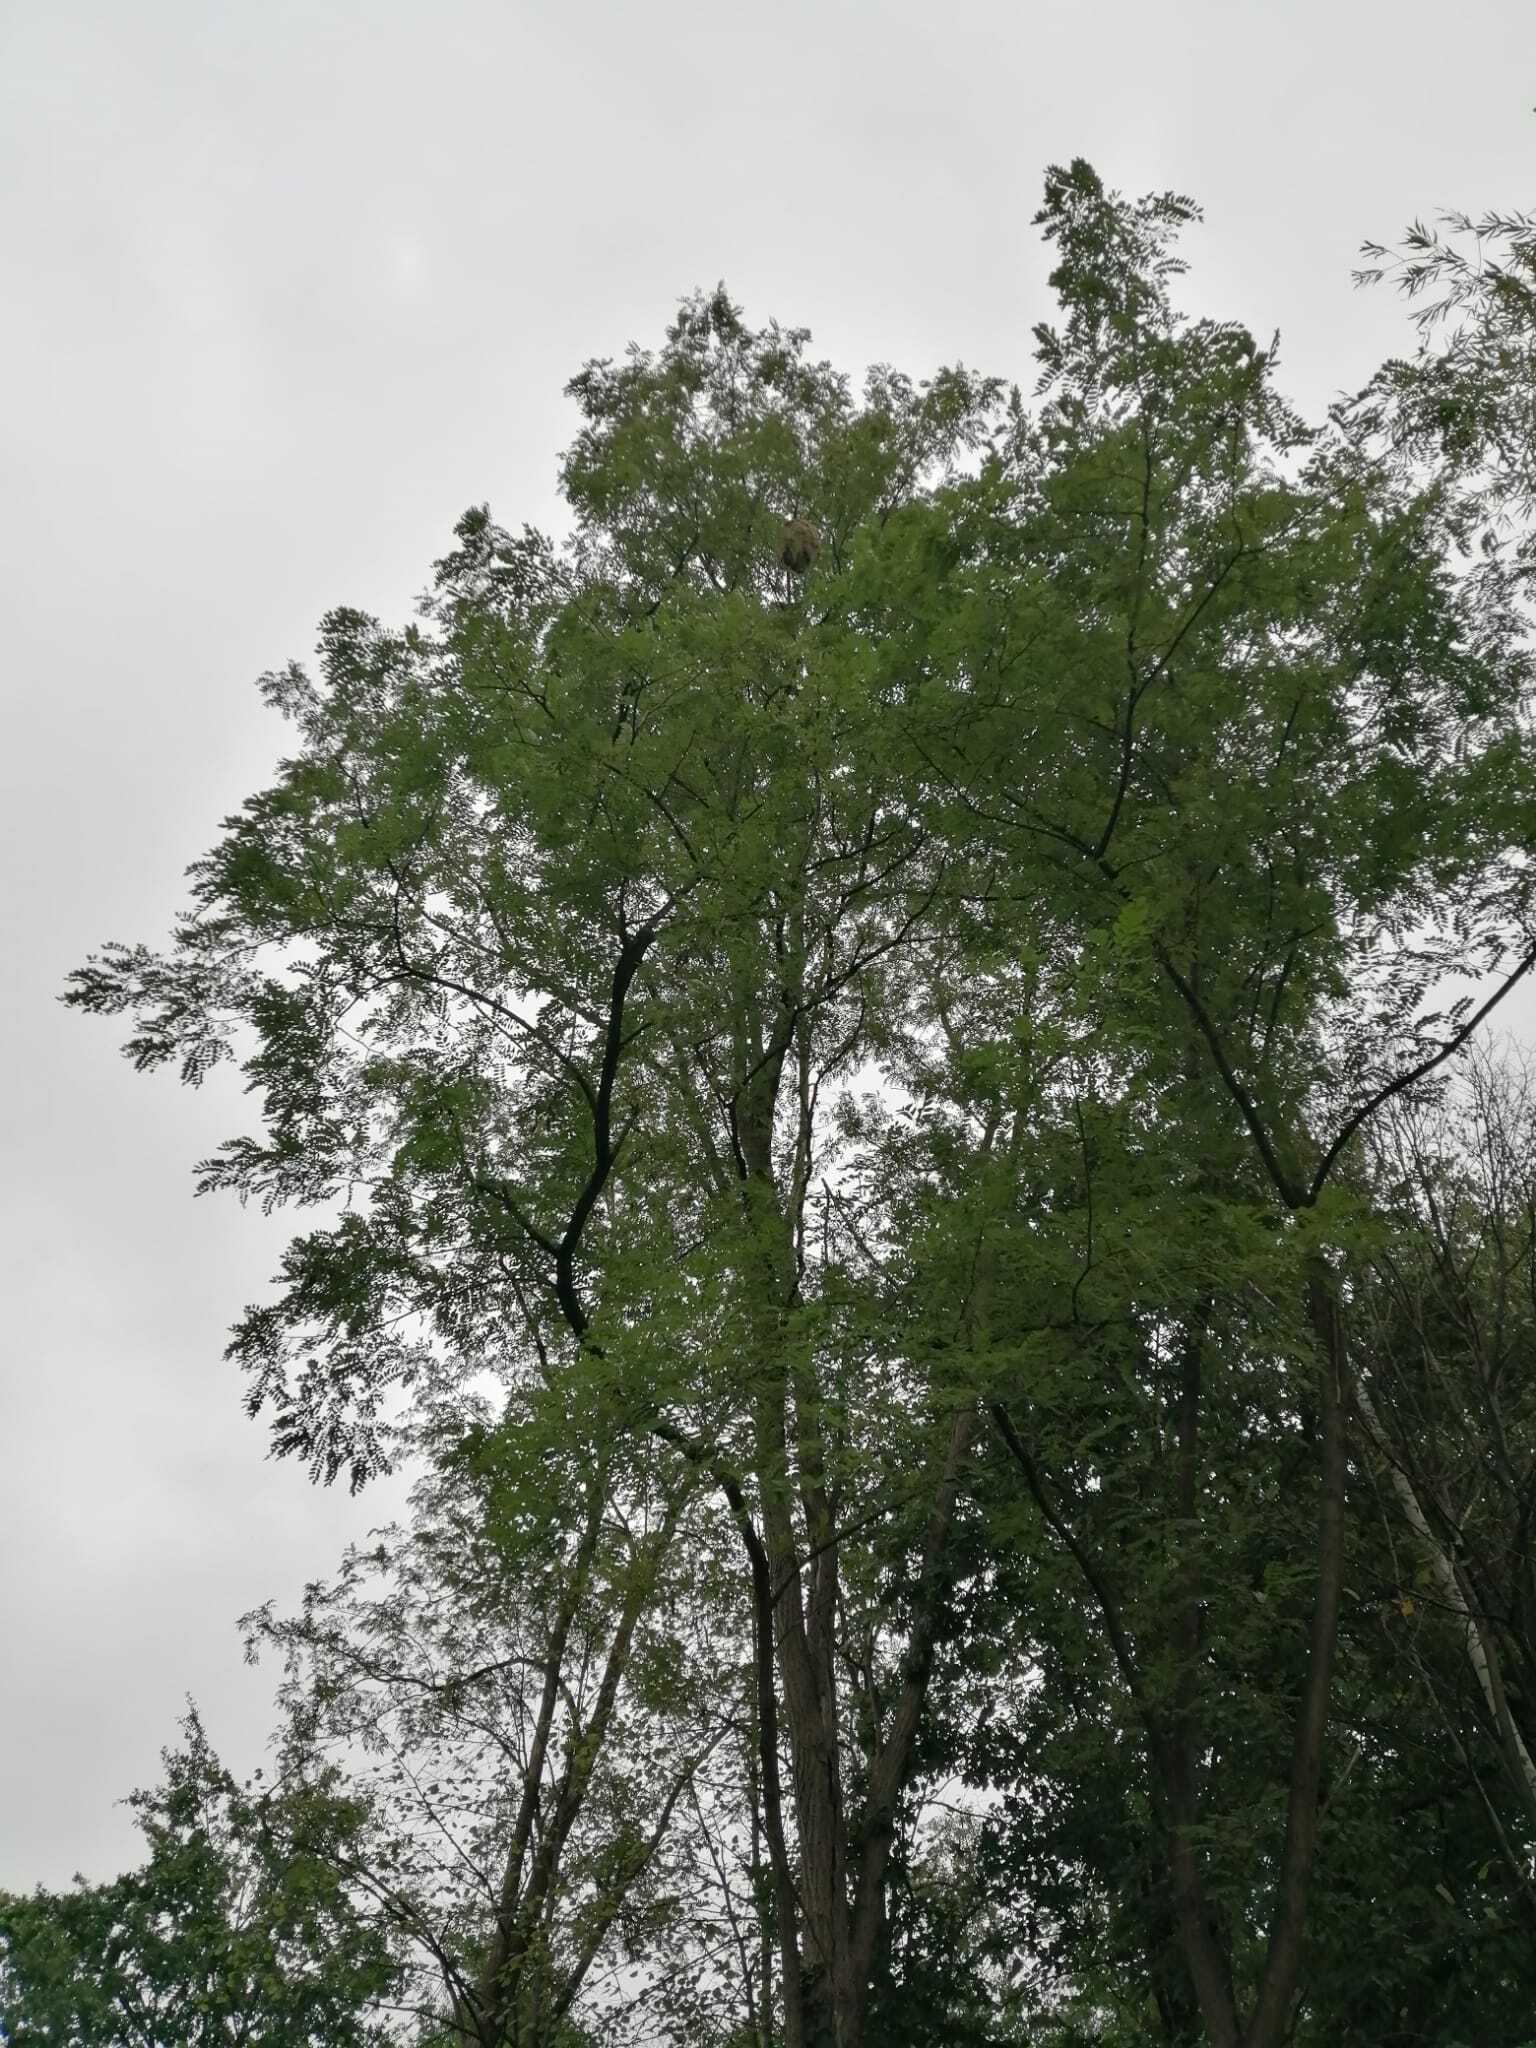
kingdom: Animalia
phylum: Arthropoda
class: Insecta
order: Hymenoptera
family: Vespidae
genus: Vespa
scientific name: Vespa velutina
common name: Asian hornet
